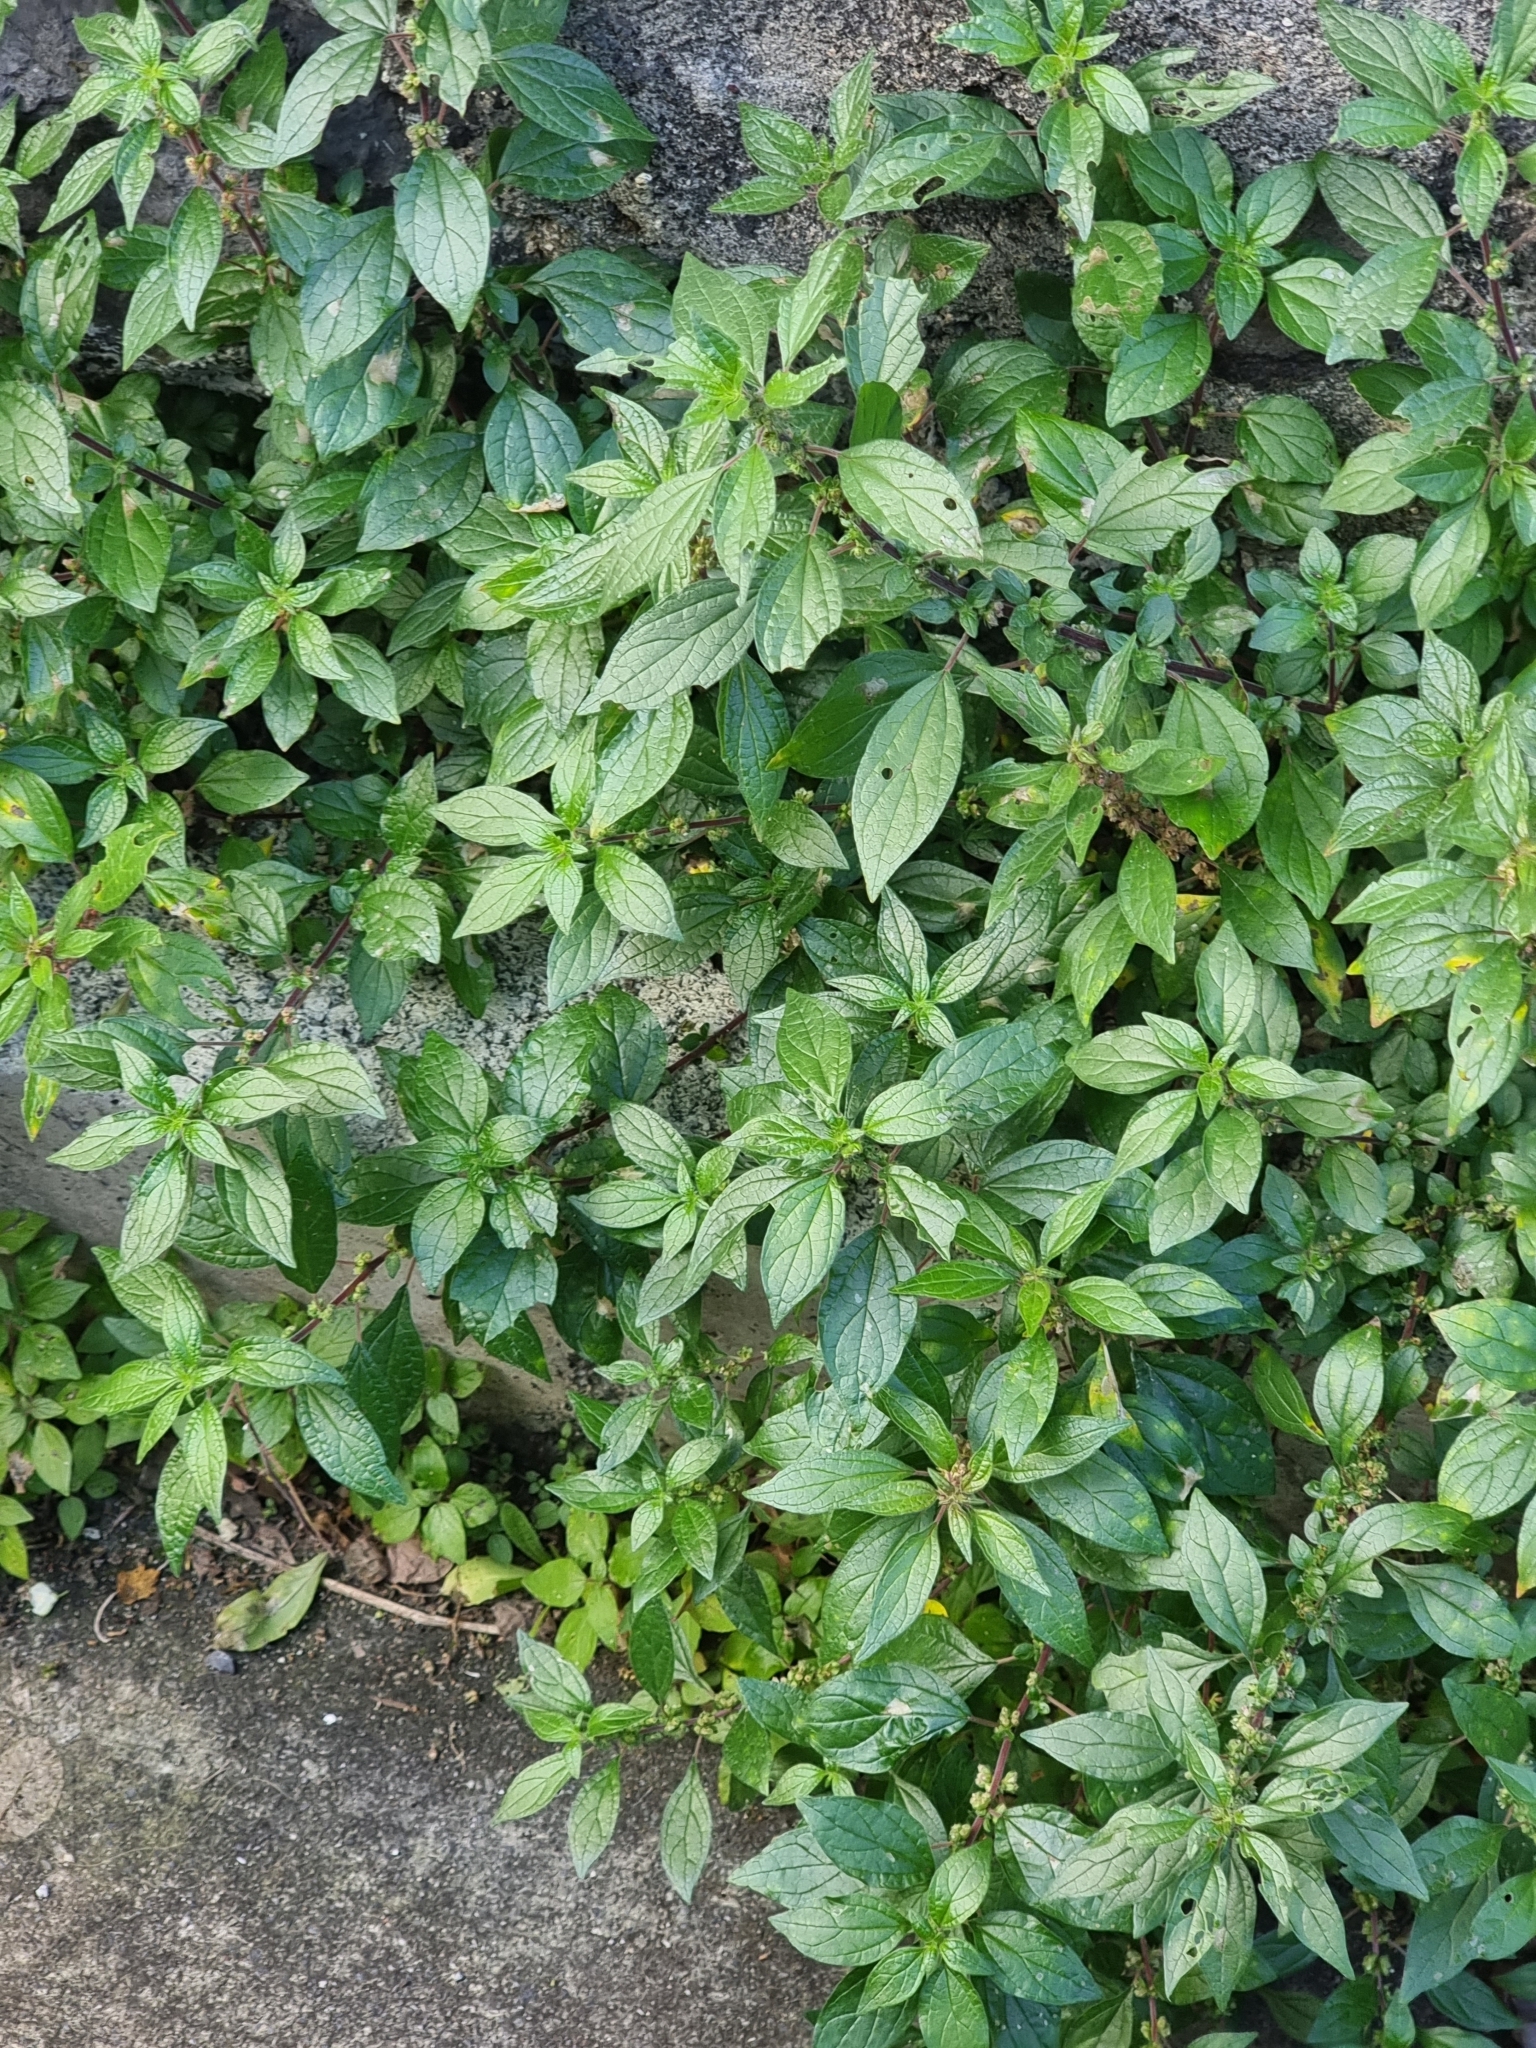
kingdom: Plantae
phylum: Tracheophyta
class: Magnoliopsida
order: Rosales
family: Urticaceae
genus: Parietaria
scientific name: Parietaria judaica
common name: Pellitory-of-the-wall
